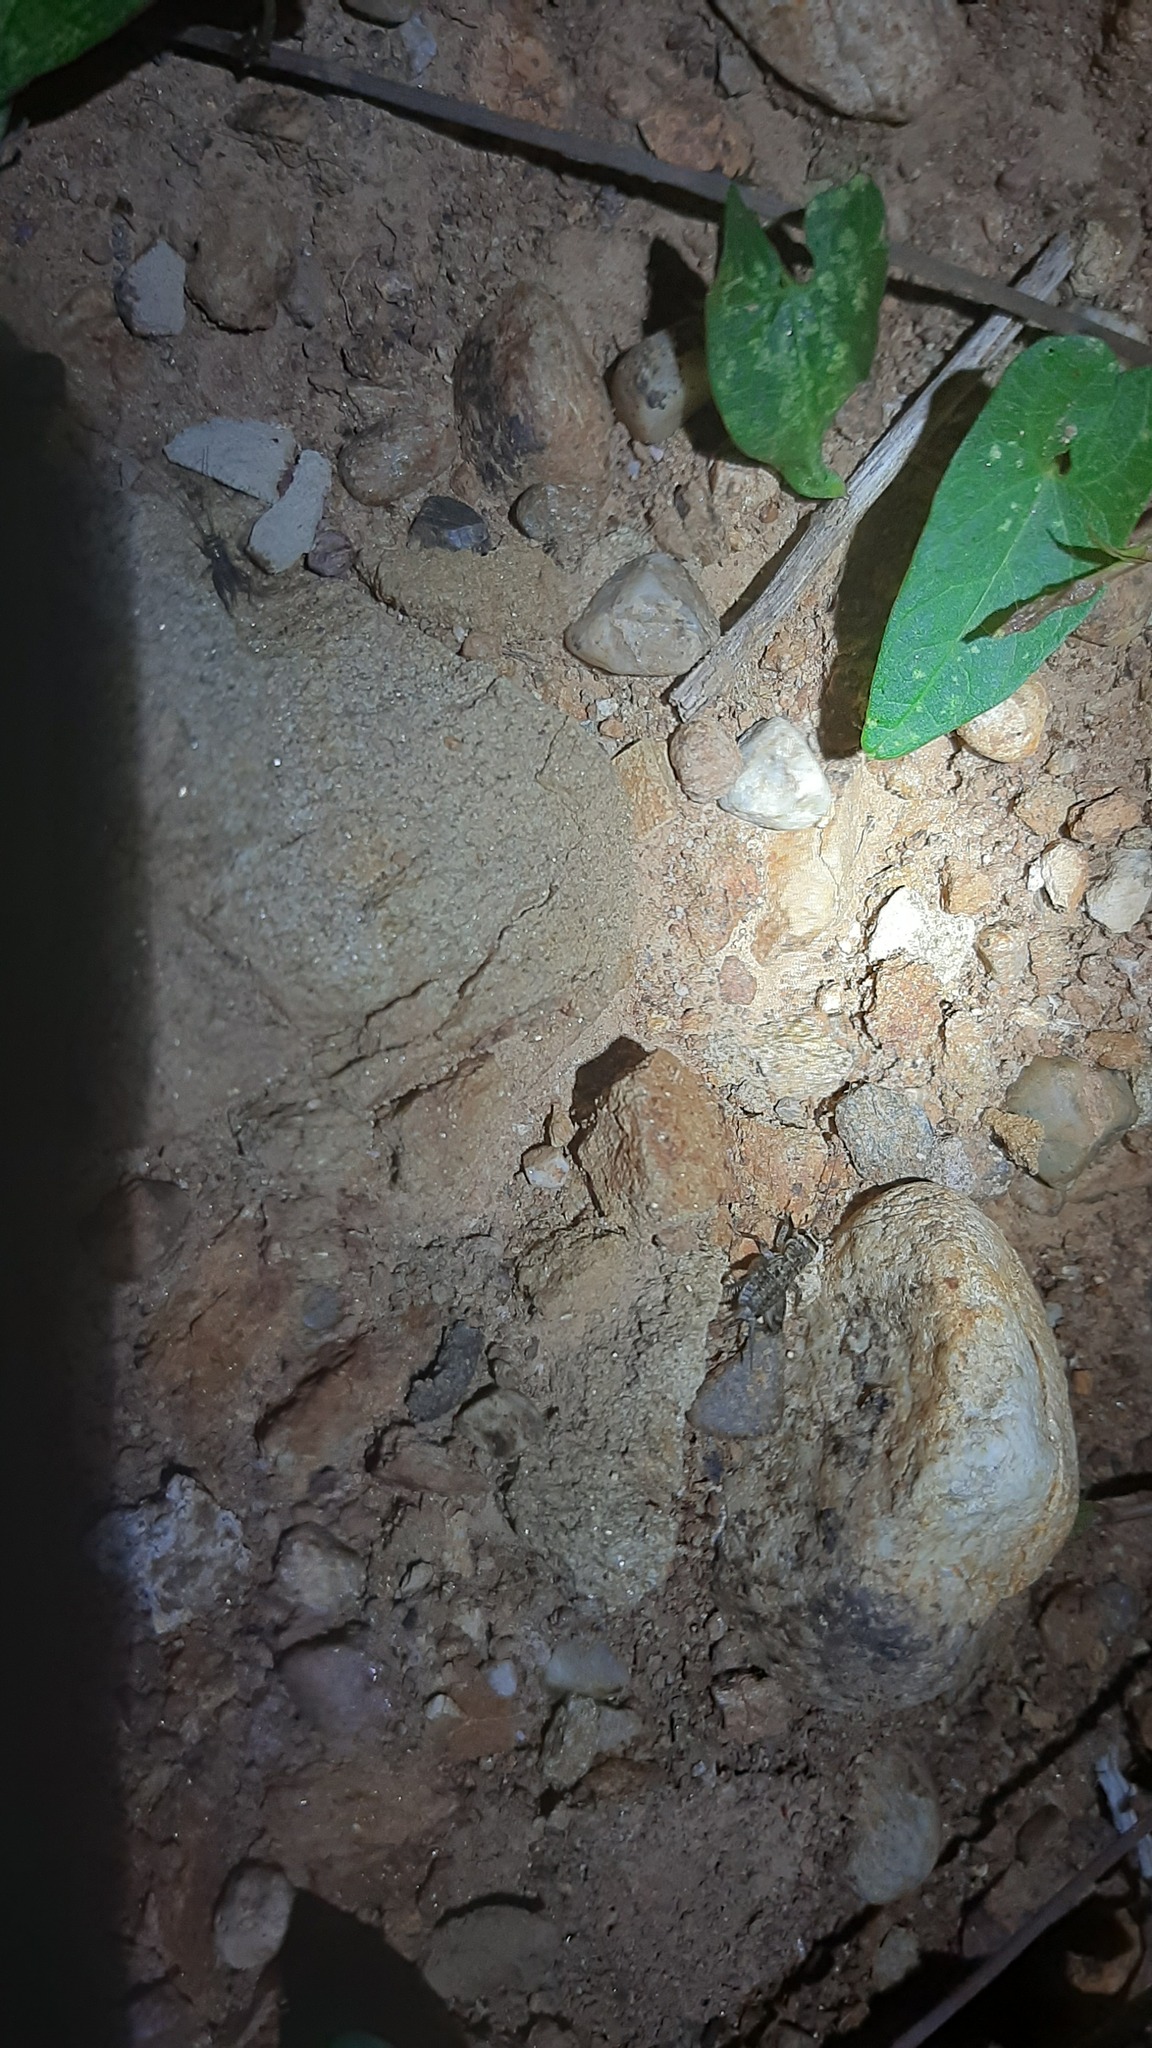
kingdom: Animalia
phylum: Arthropoda
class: Insecta
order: Orthoptera
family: Gryllidae
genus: Eumodicogryllus
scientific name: Eumodicogryllus bordigalensis
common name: Bordeaux cricket
